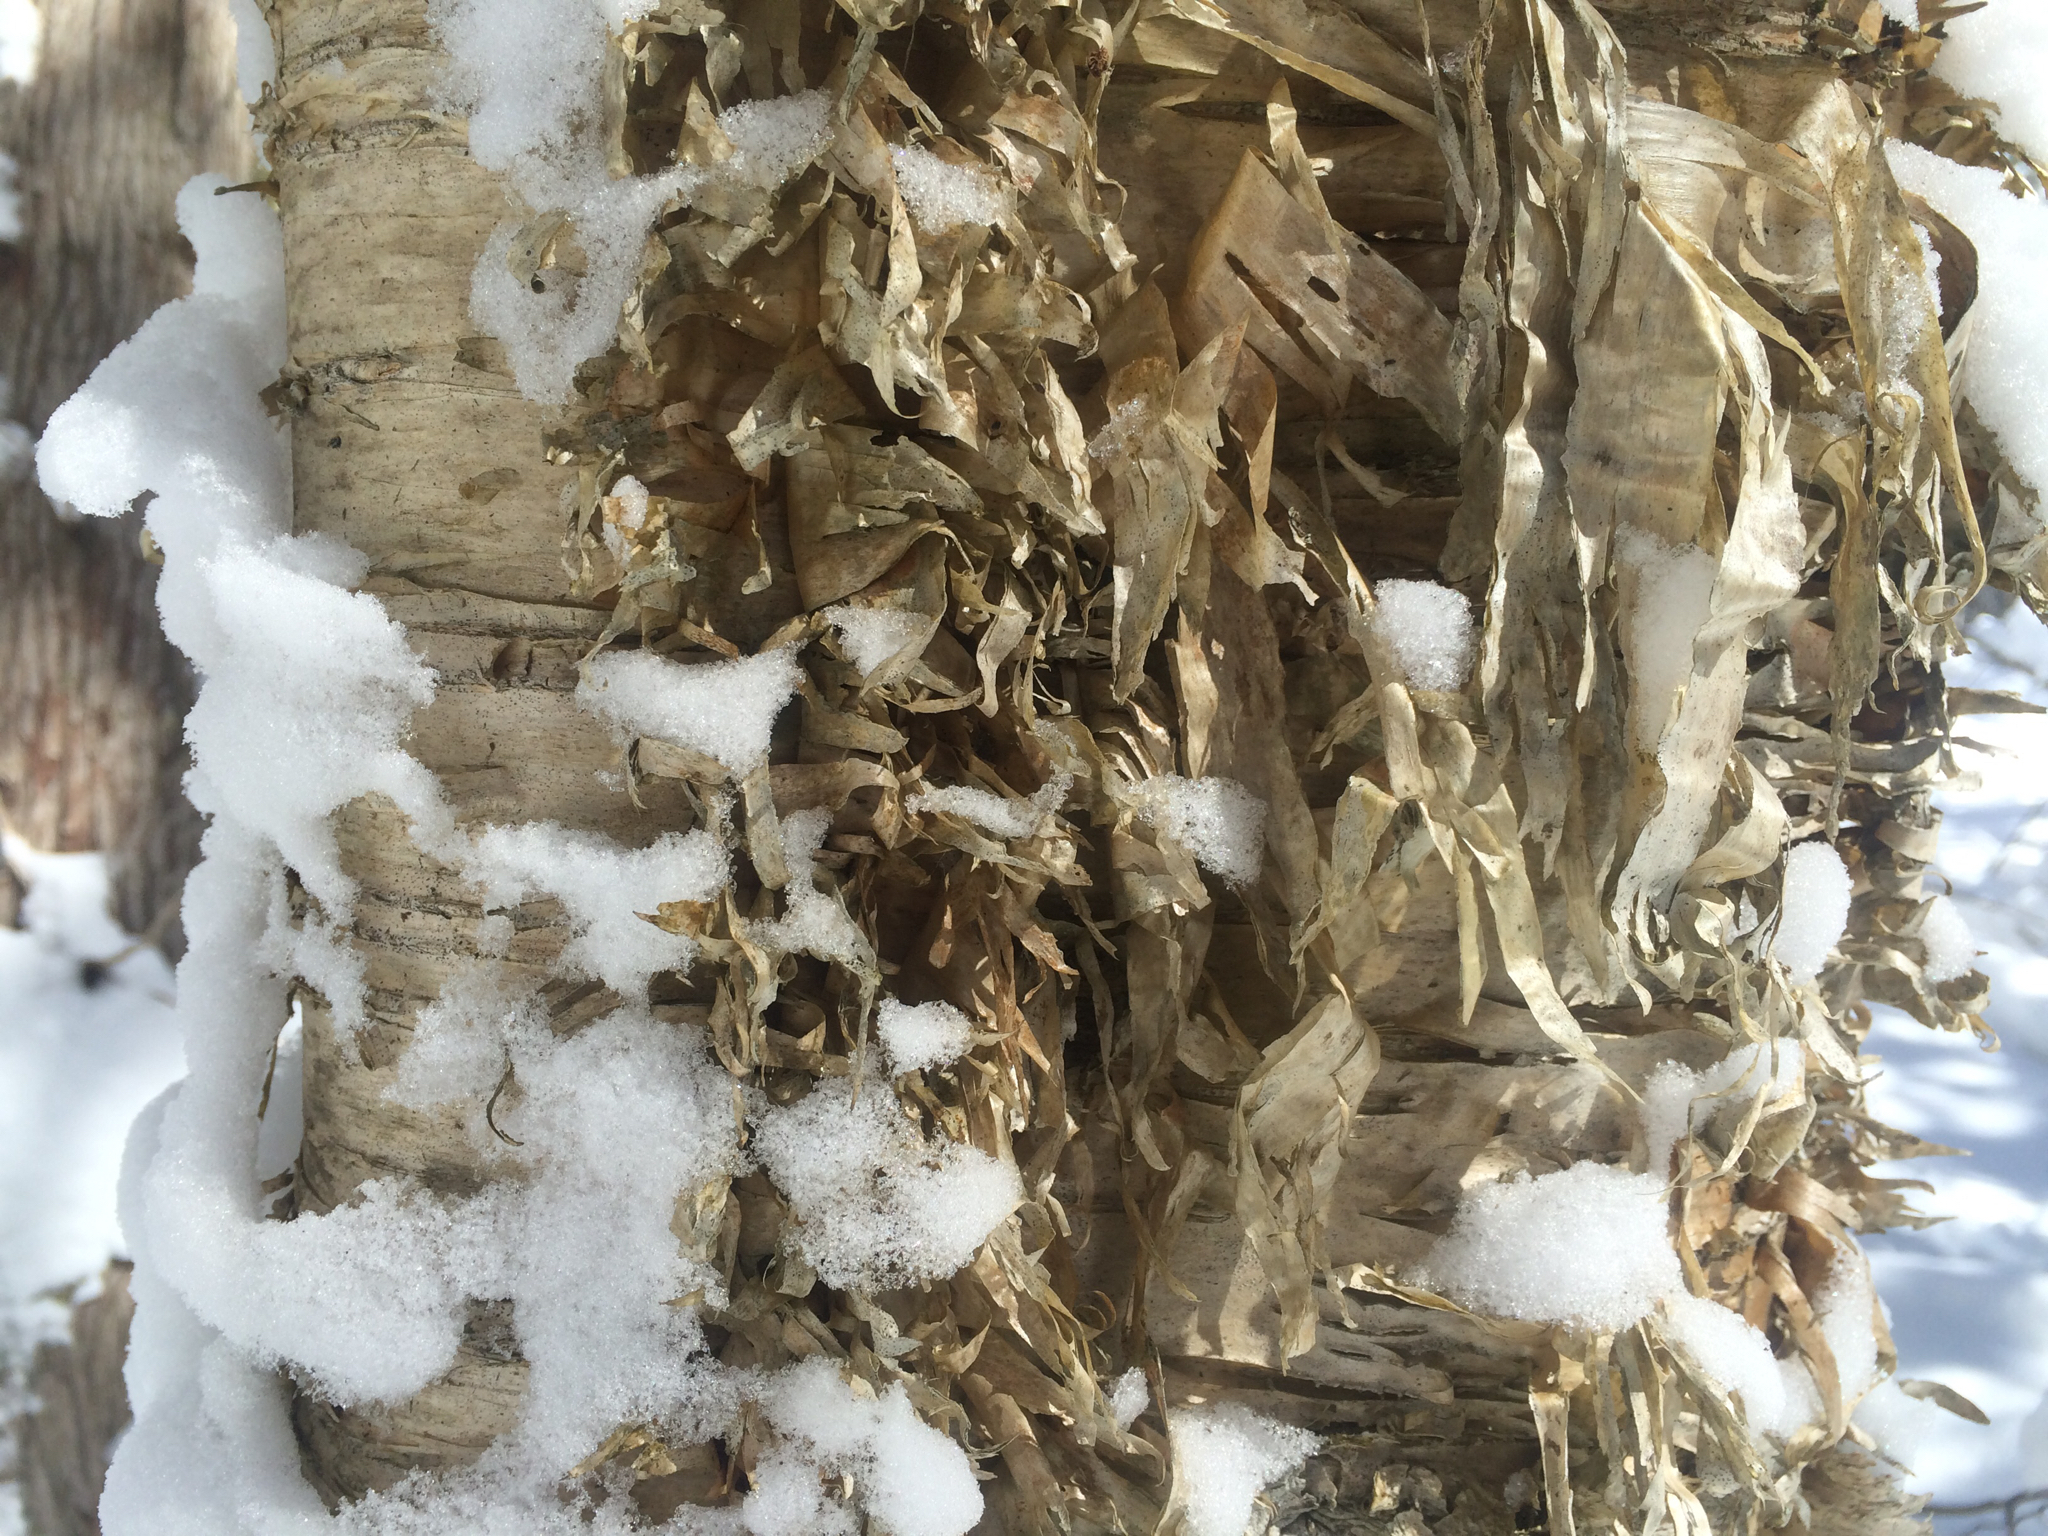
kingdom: Plantae
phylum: Tracheophyta
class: Magnoliopsida
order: Fagales
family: Betulaceae
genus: Betula
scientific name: Betula alleghaniensis
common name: Yellow birch
